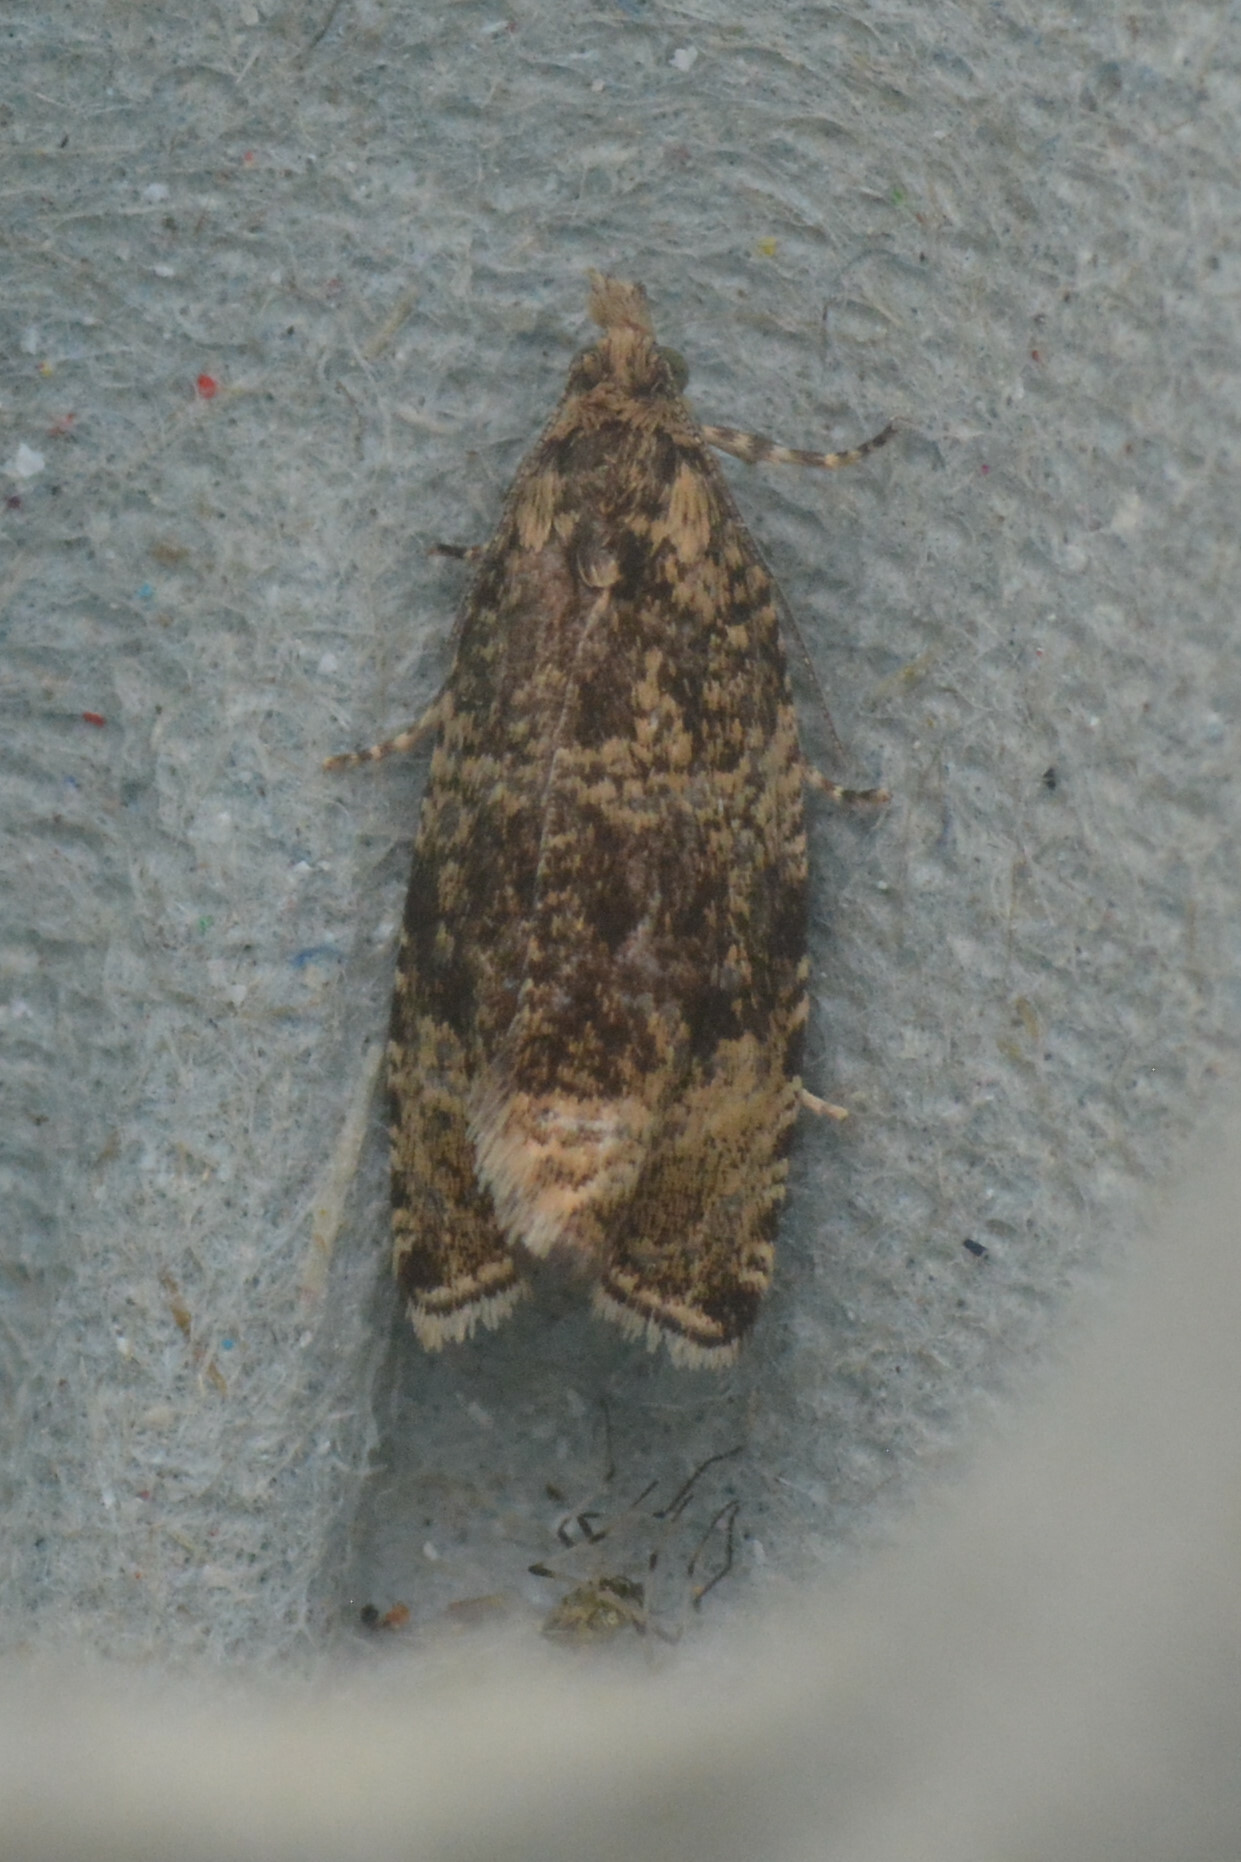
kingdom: Animalia
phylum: Arthropoda
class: Insecta
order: Lepidoptera
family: Tortricidae
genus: Syricoris
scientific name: Syricoris lacunana
